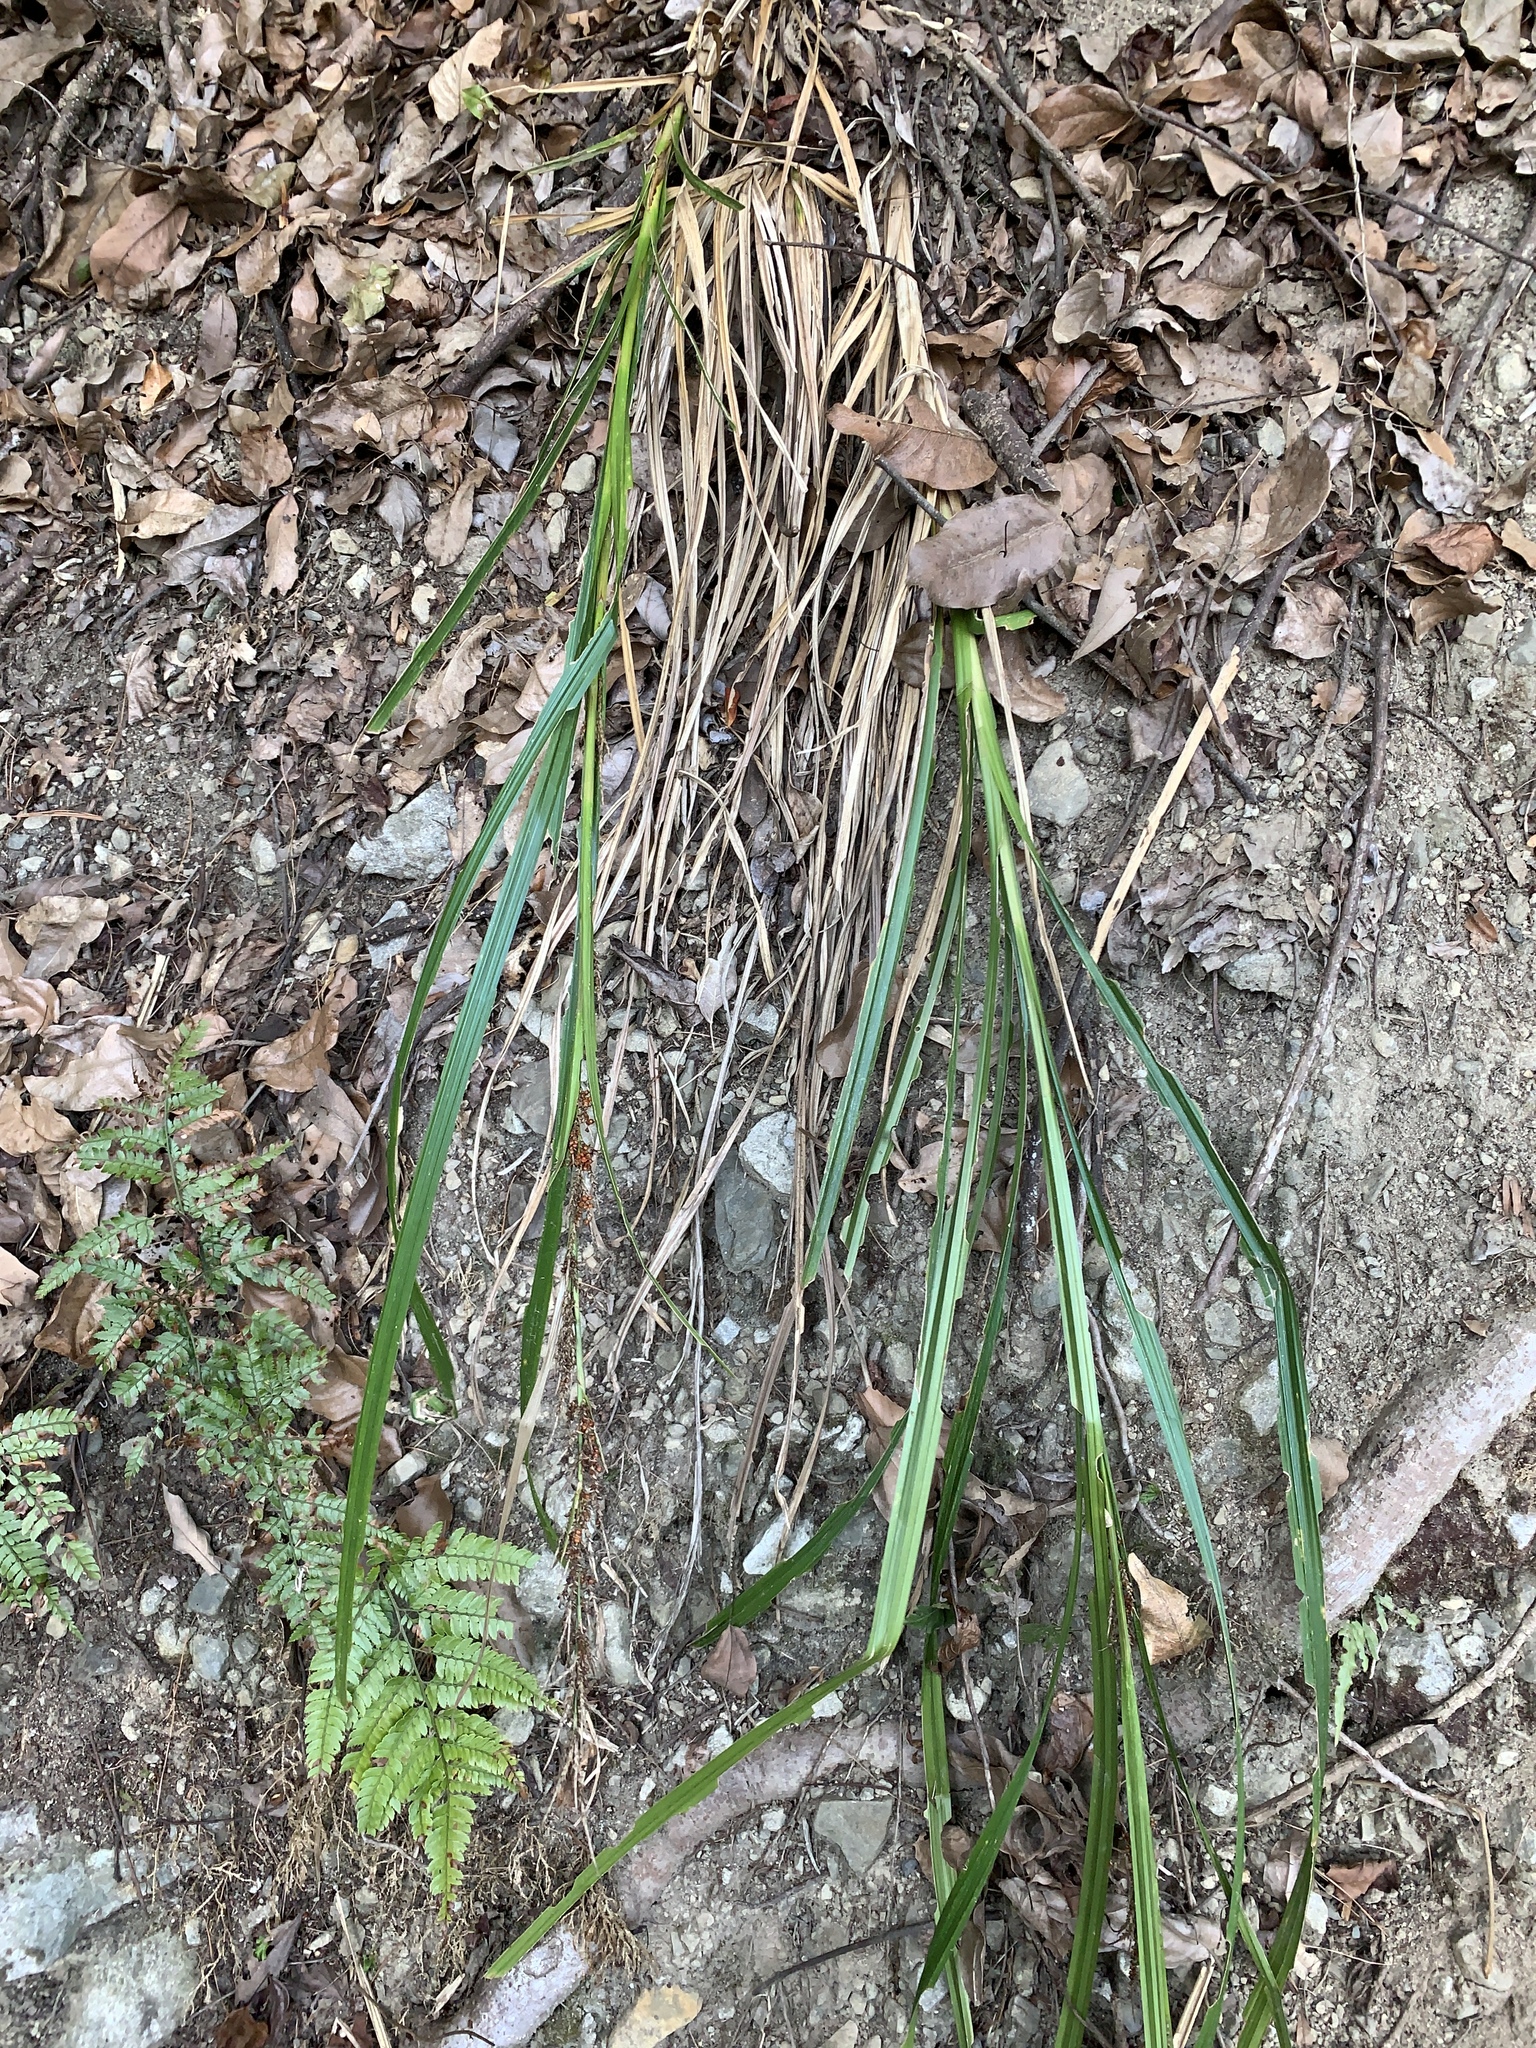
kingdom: Plantae
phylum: Tracheophyta
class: Liliopsida
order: Poales
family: Cyperaceae
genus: Carex
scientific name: Carex baccans
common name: Crimson seeded sedge
